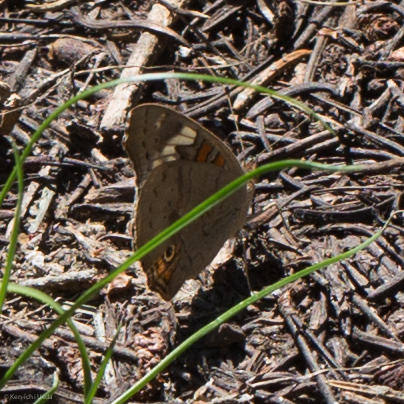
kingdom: Animalia
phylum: Arthropoda
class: Insecta
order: Lepidoptera
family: Nymphalidae
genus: Junonia
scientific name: Junonia grisea
